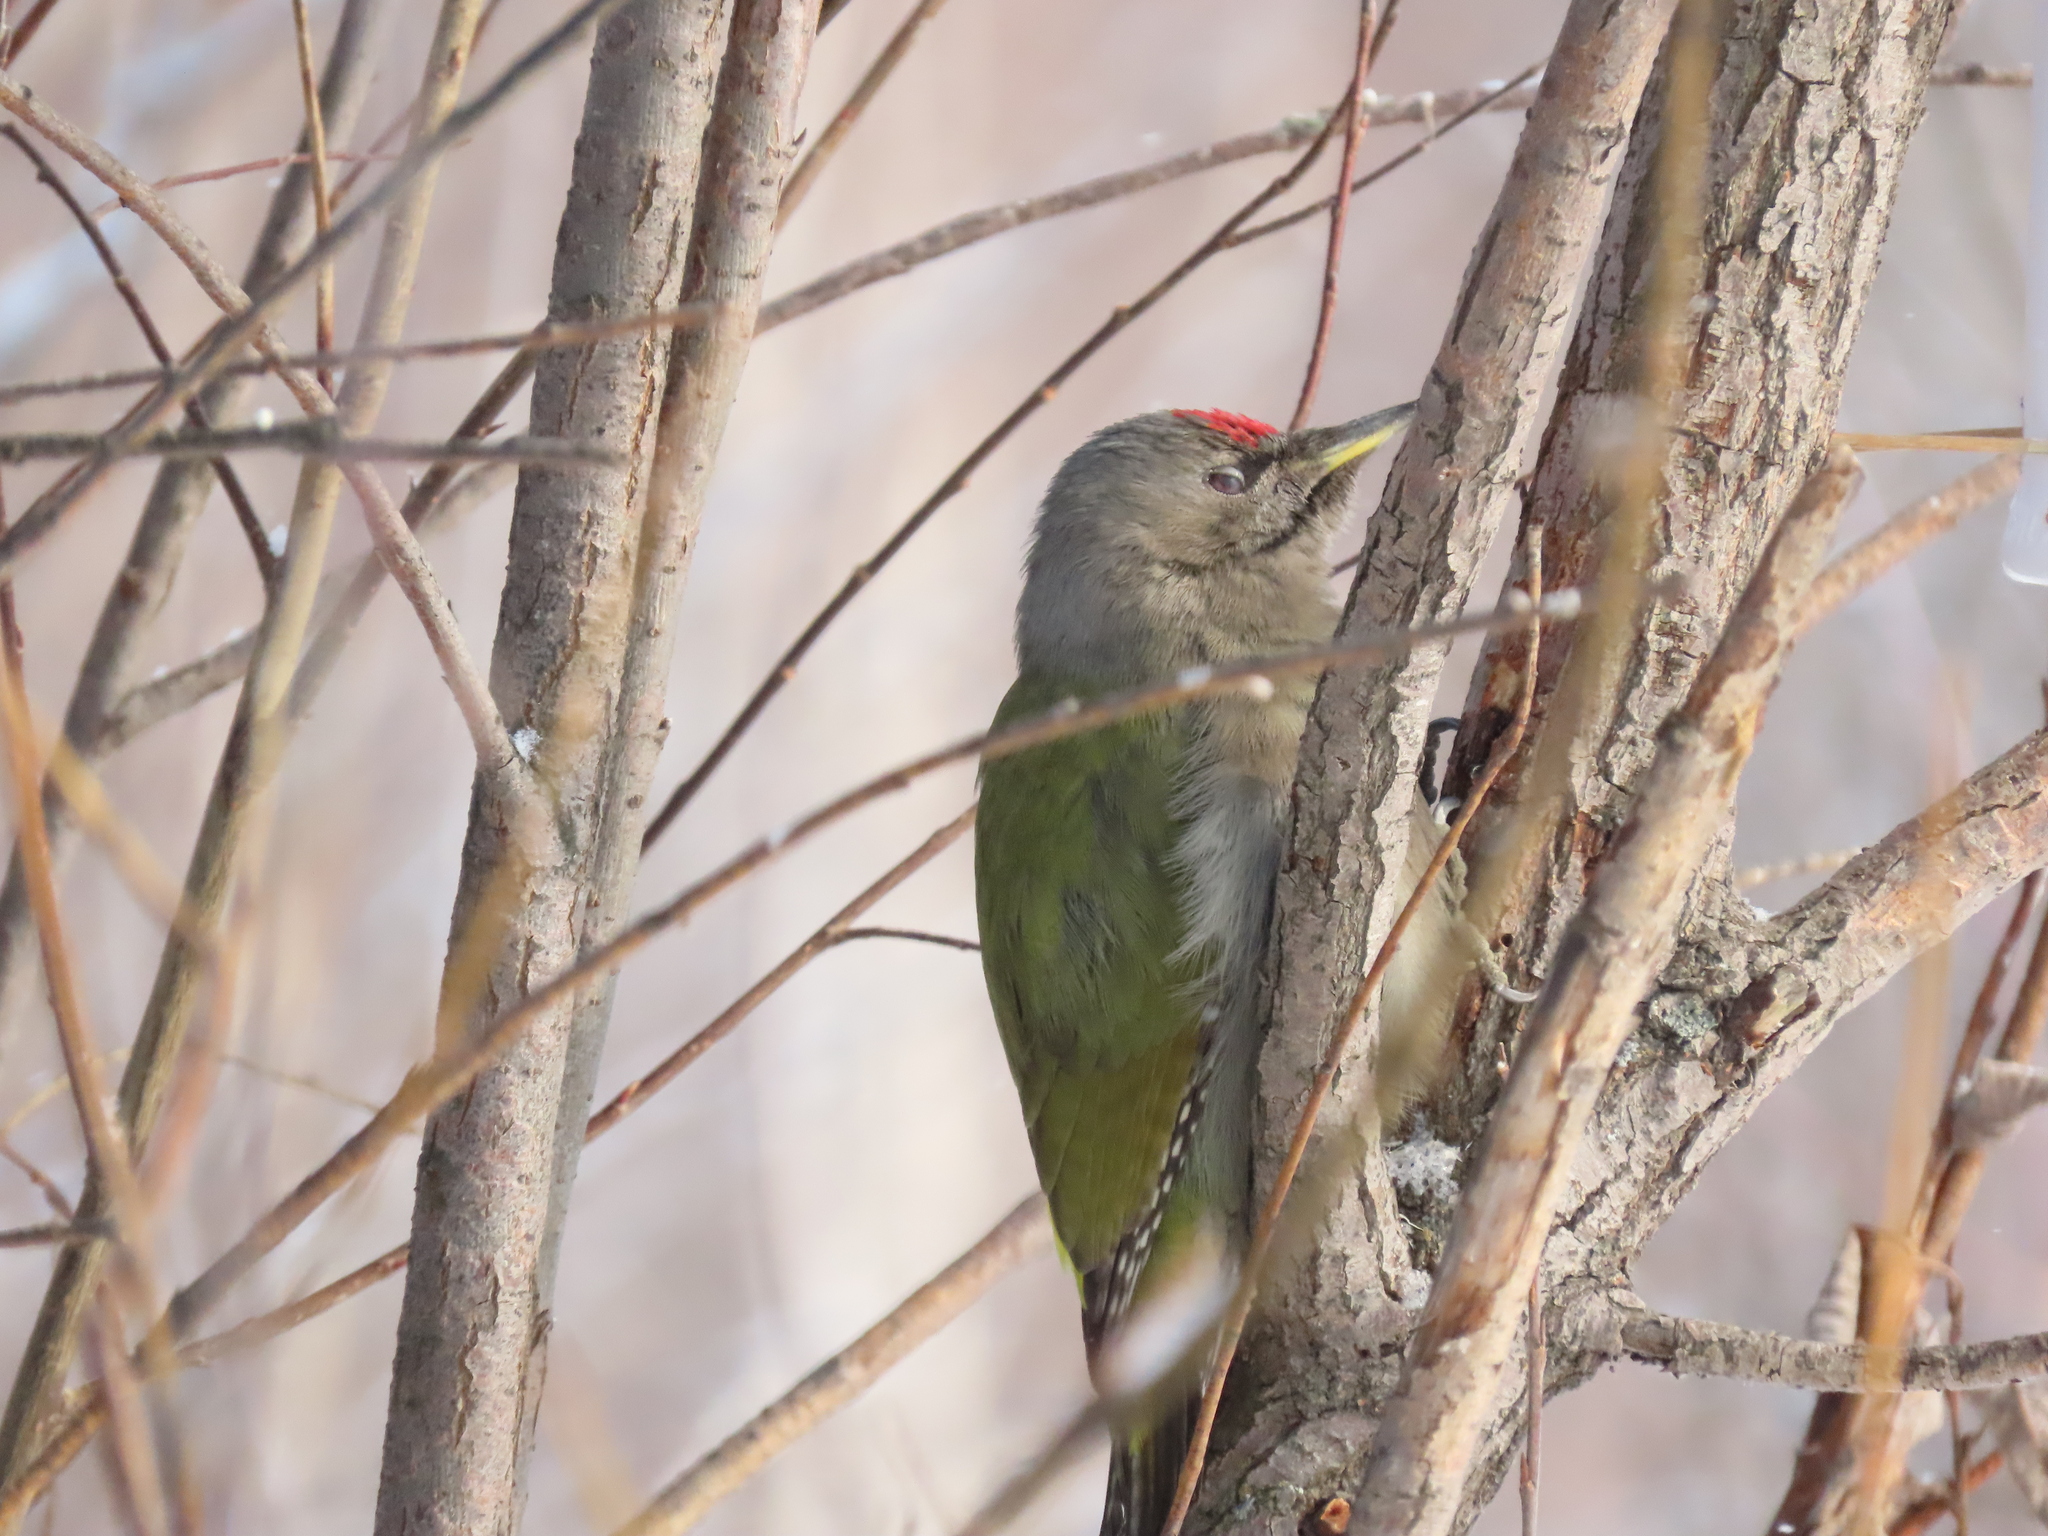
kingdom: Animalia
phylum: Chordata
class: Aves
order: Piciformes
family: Picidae
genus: Picus
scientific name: Picus canus
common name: Grey-headed woodpecker
